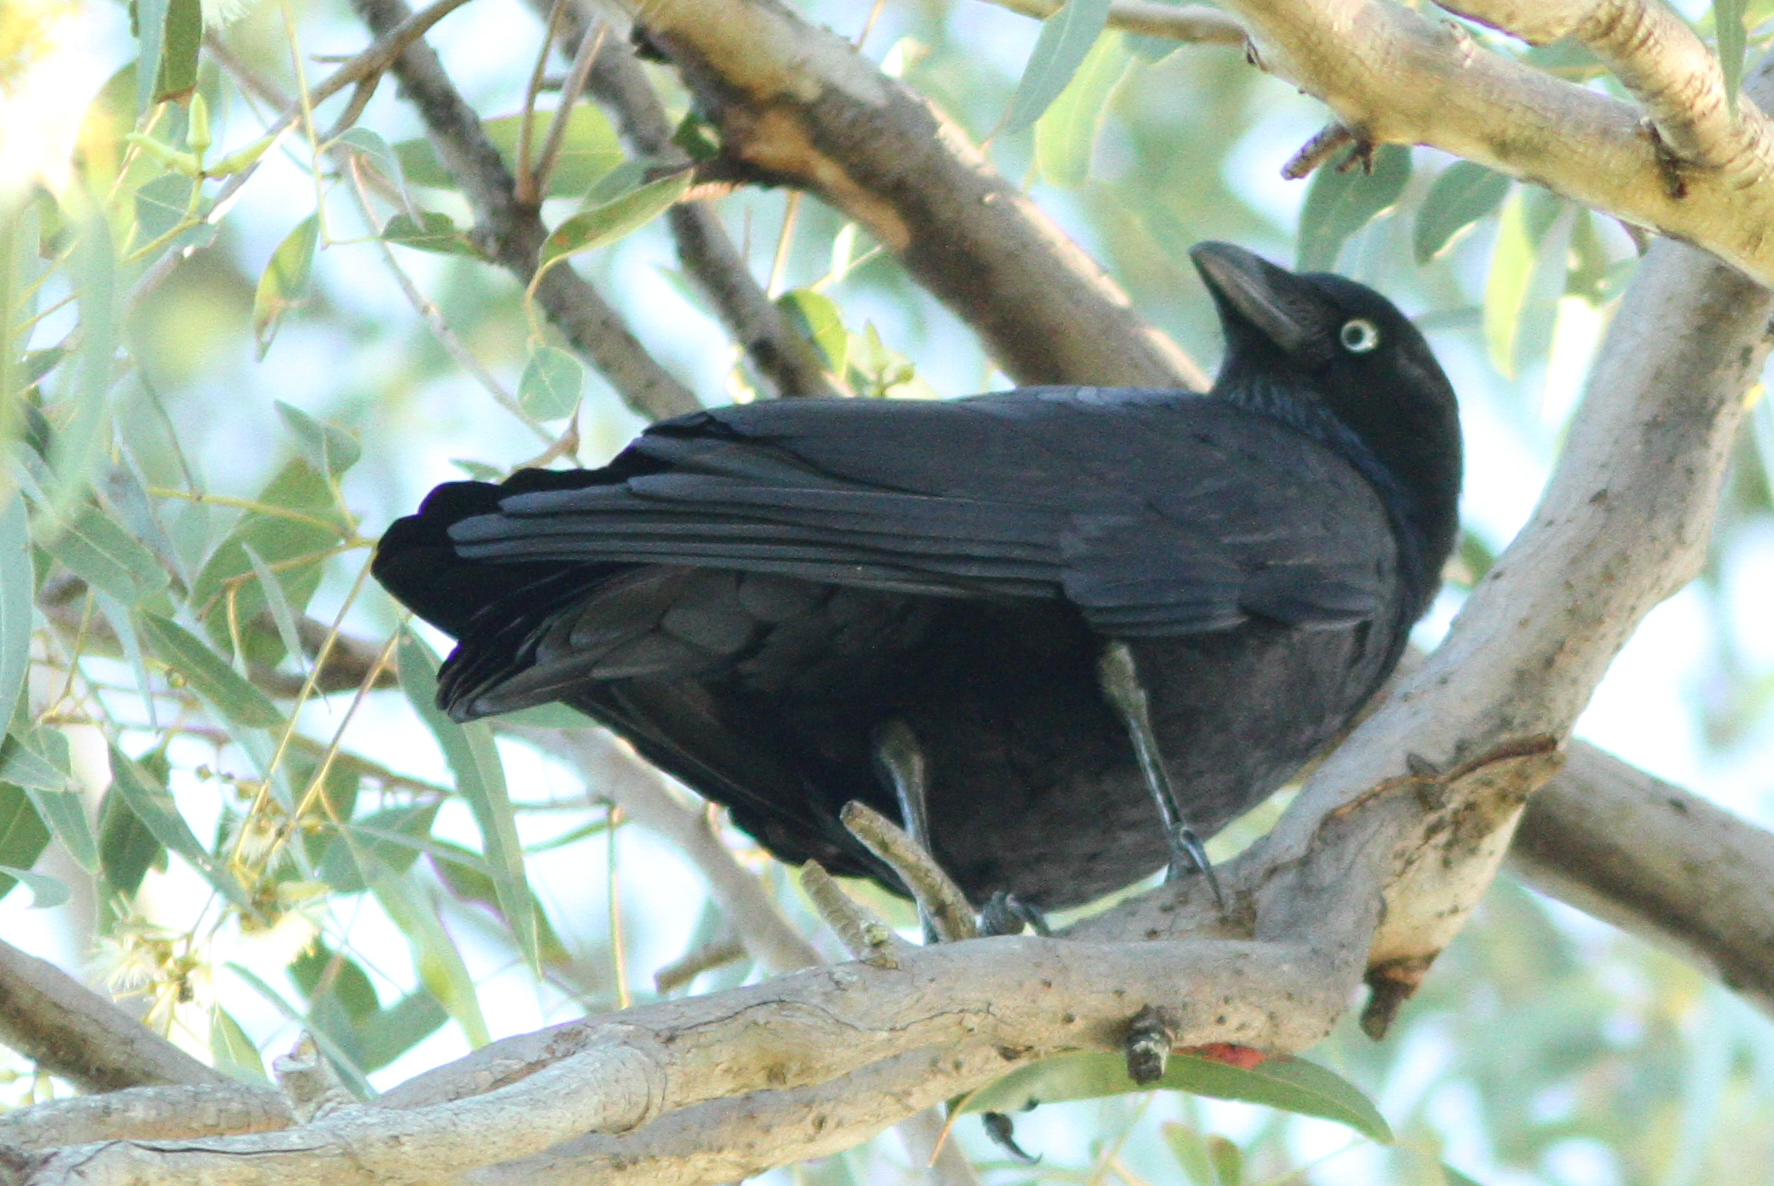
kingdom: Animalia
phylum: Chordata
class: Aves
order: Passeriformes
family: Corvidae
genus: Corvus
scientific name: Corvus orru
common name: Torresian crow
